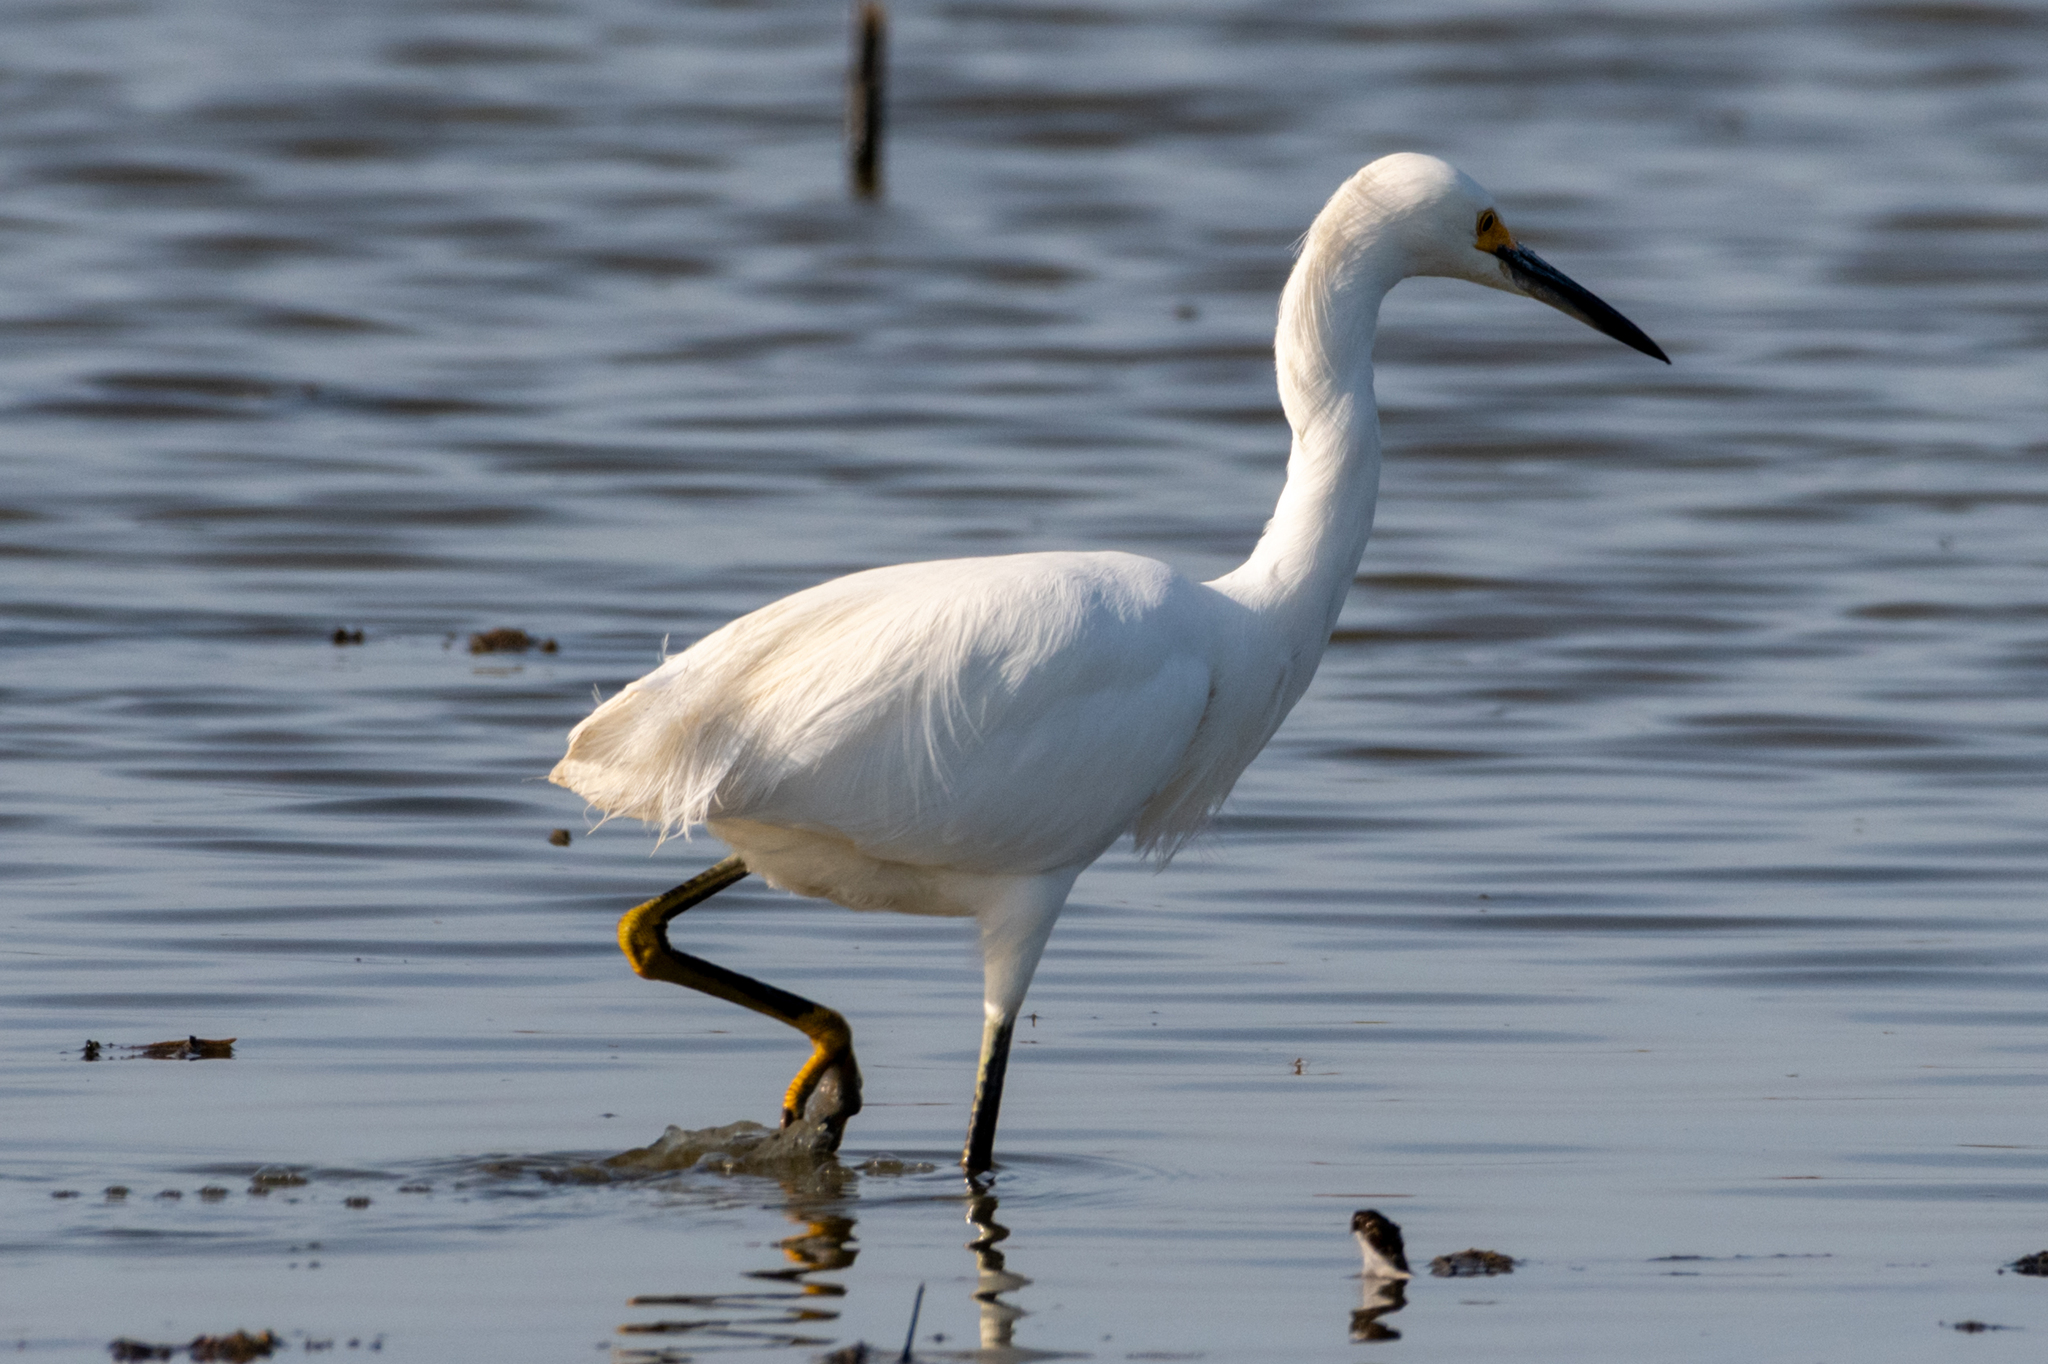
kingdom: Animalia
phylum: Chordata
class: Aves
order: Pelecaniformes
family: Ardeidae
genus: Egretta
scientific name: Egretta thula
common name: Snowy egret
